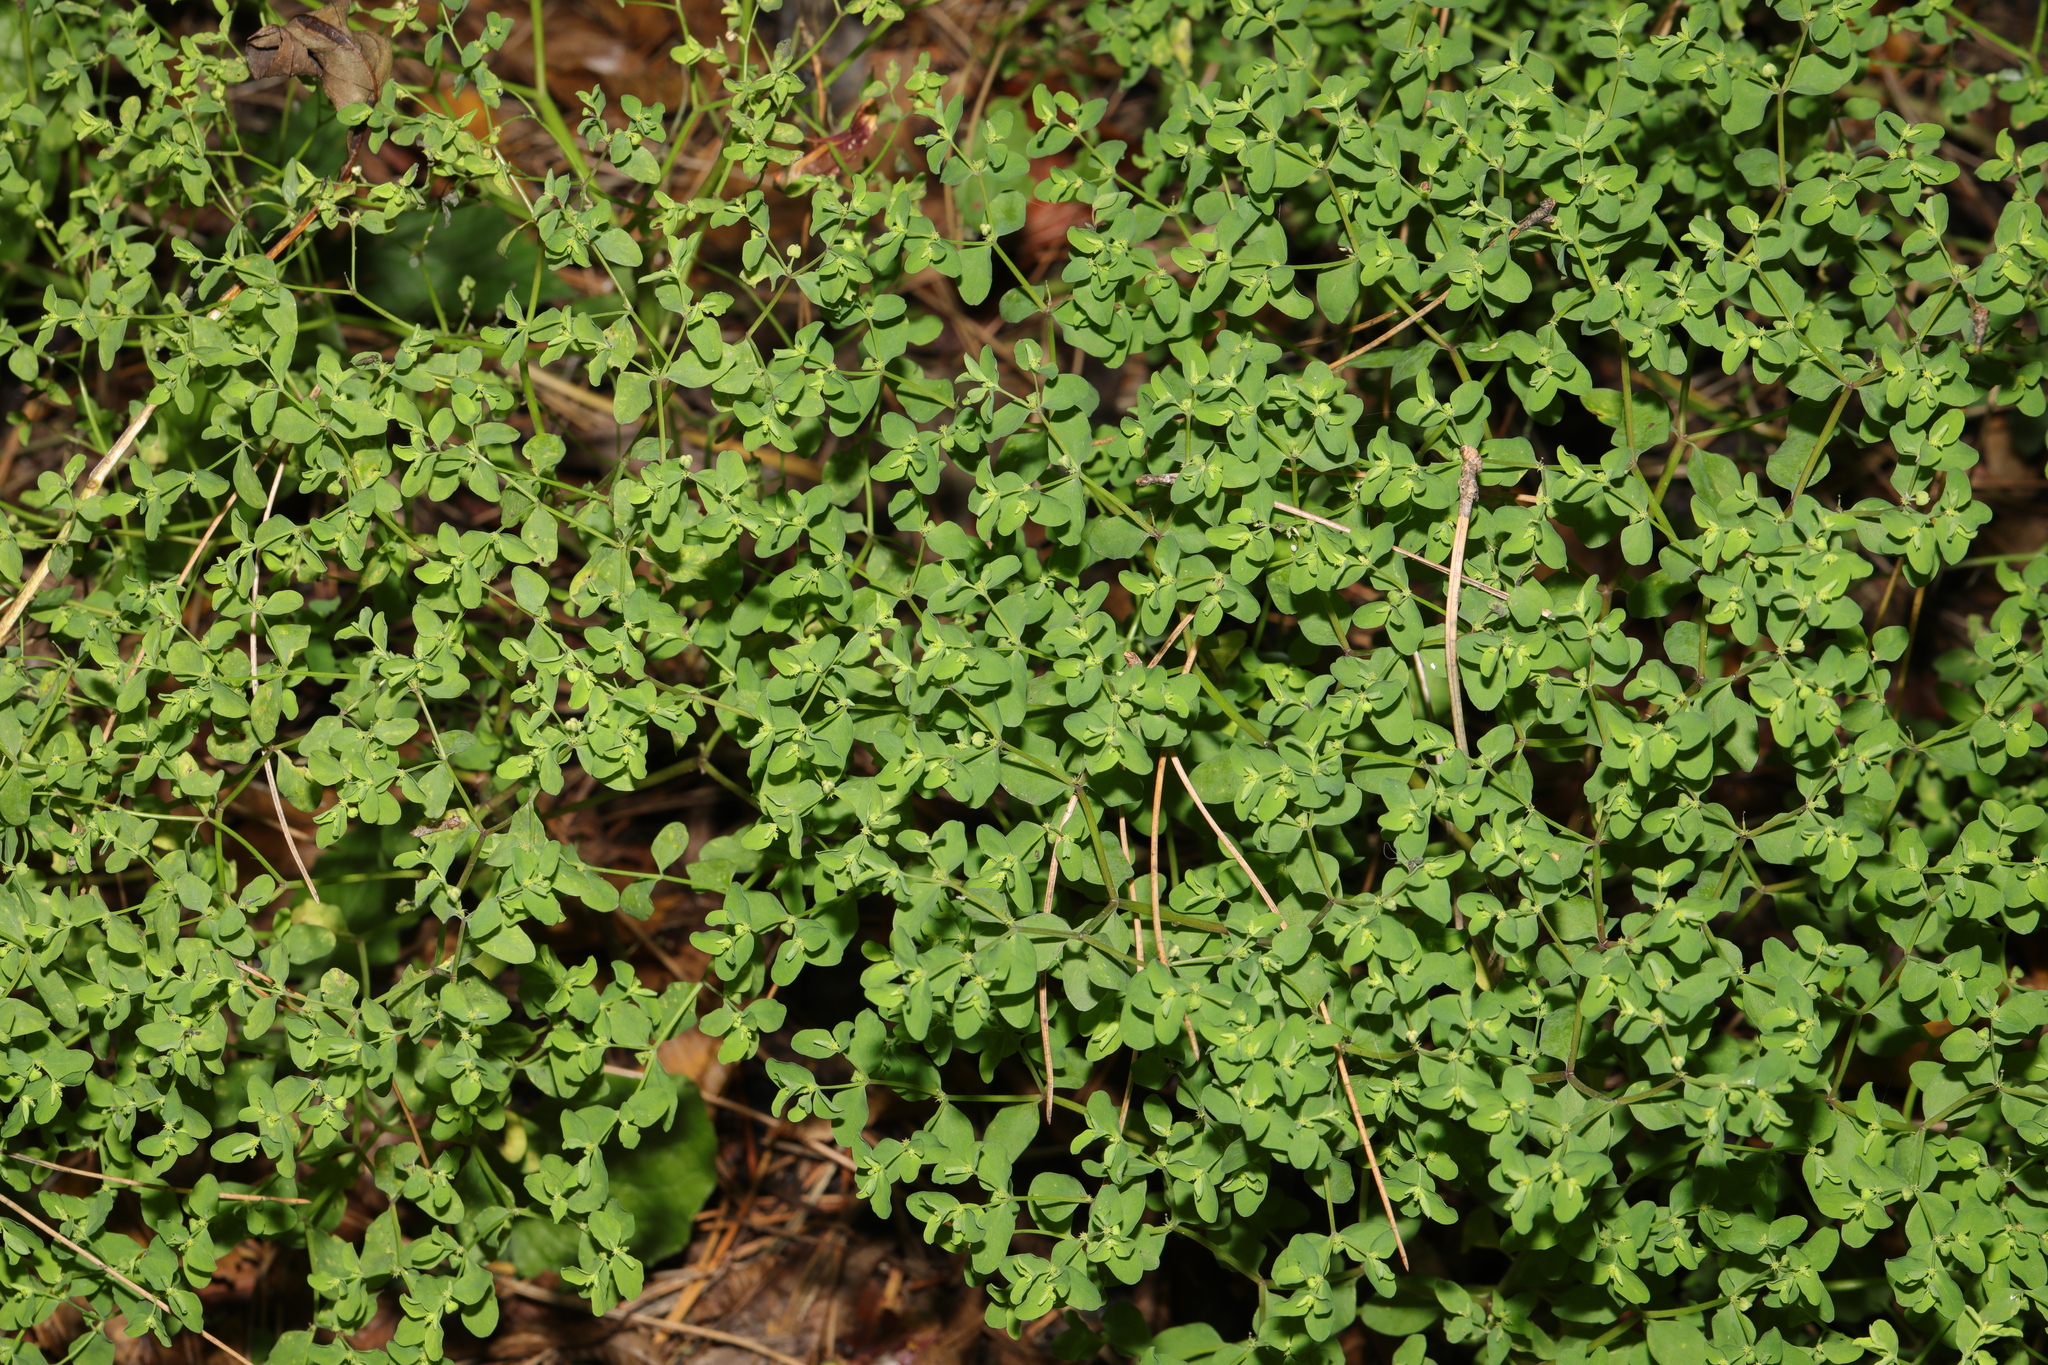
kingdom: Plantae
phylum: Tracheophyta
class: Magnoliopsida
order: Malpighiales
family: Euphorbiaceae
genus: Euphorbia
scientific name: Euphorbia peplus
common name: Petty spurge
